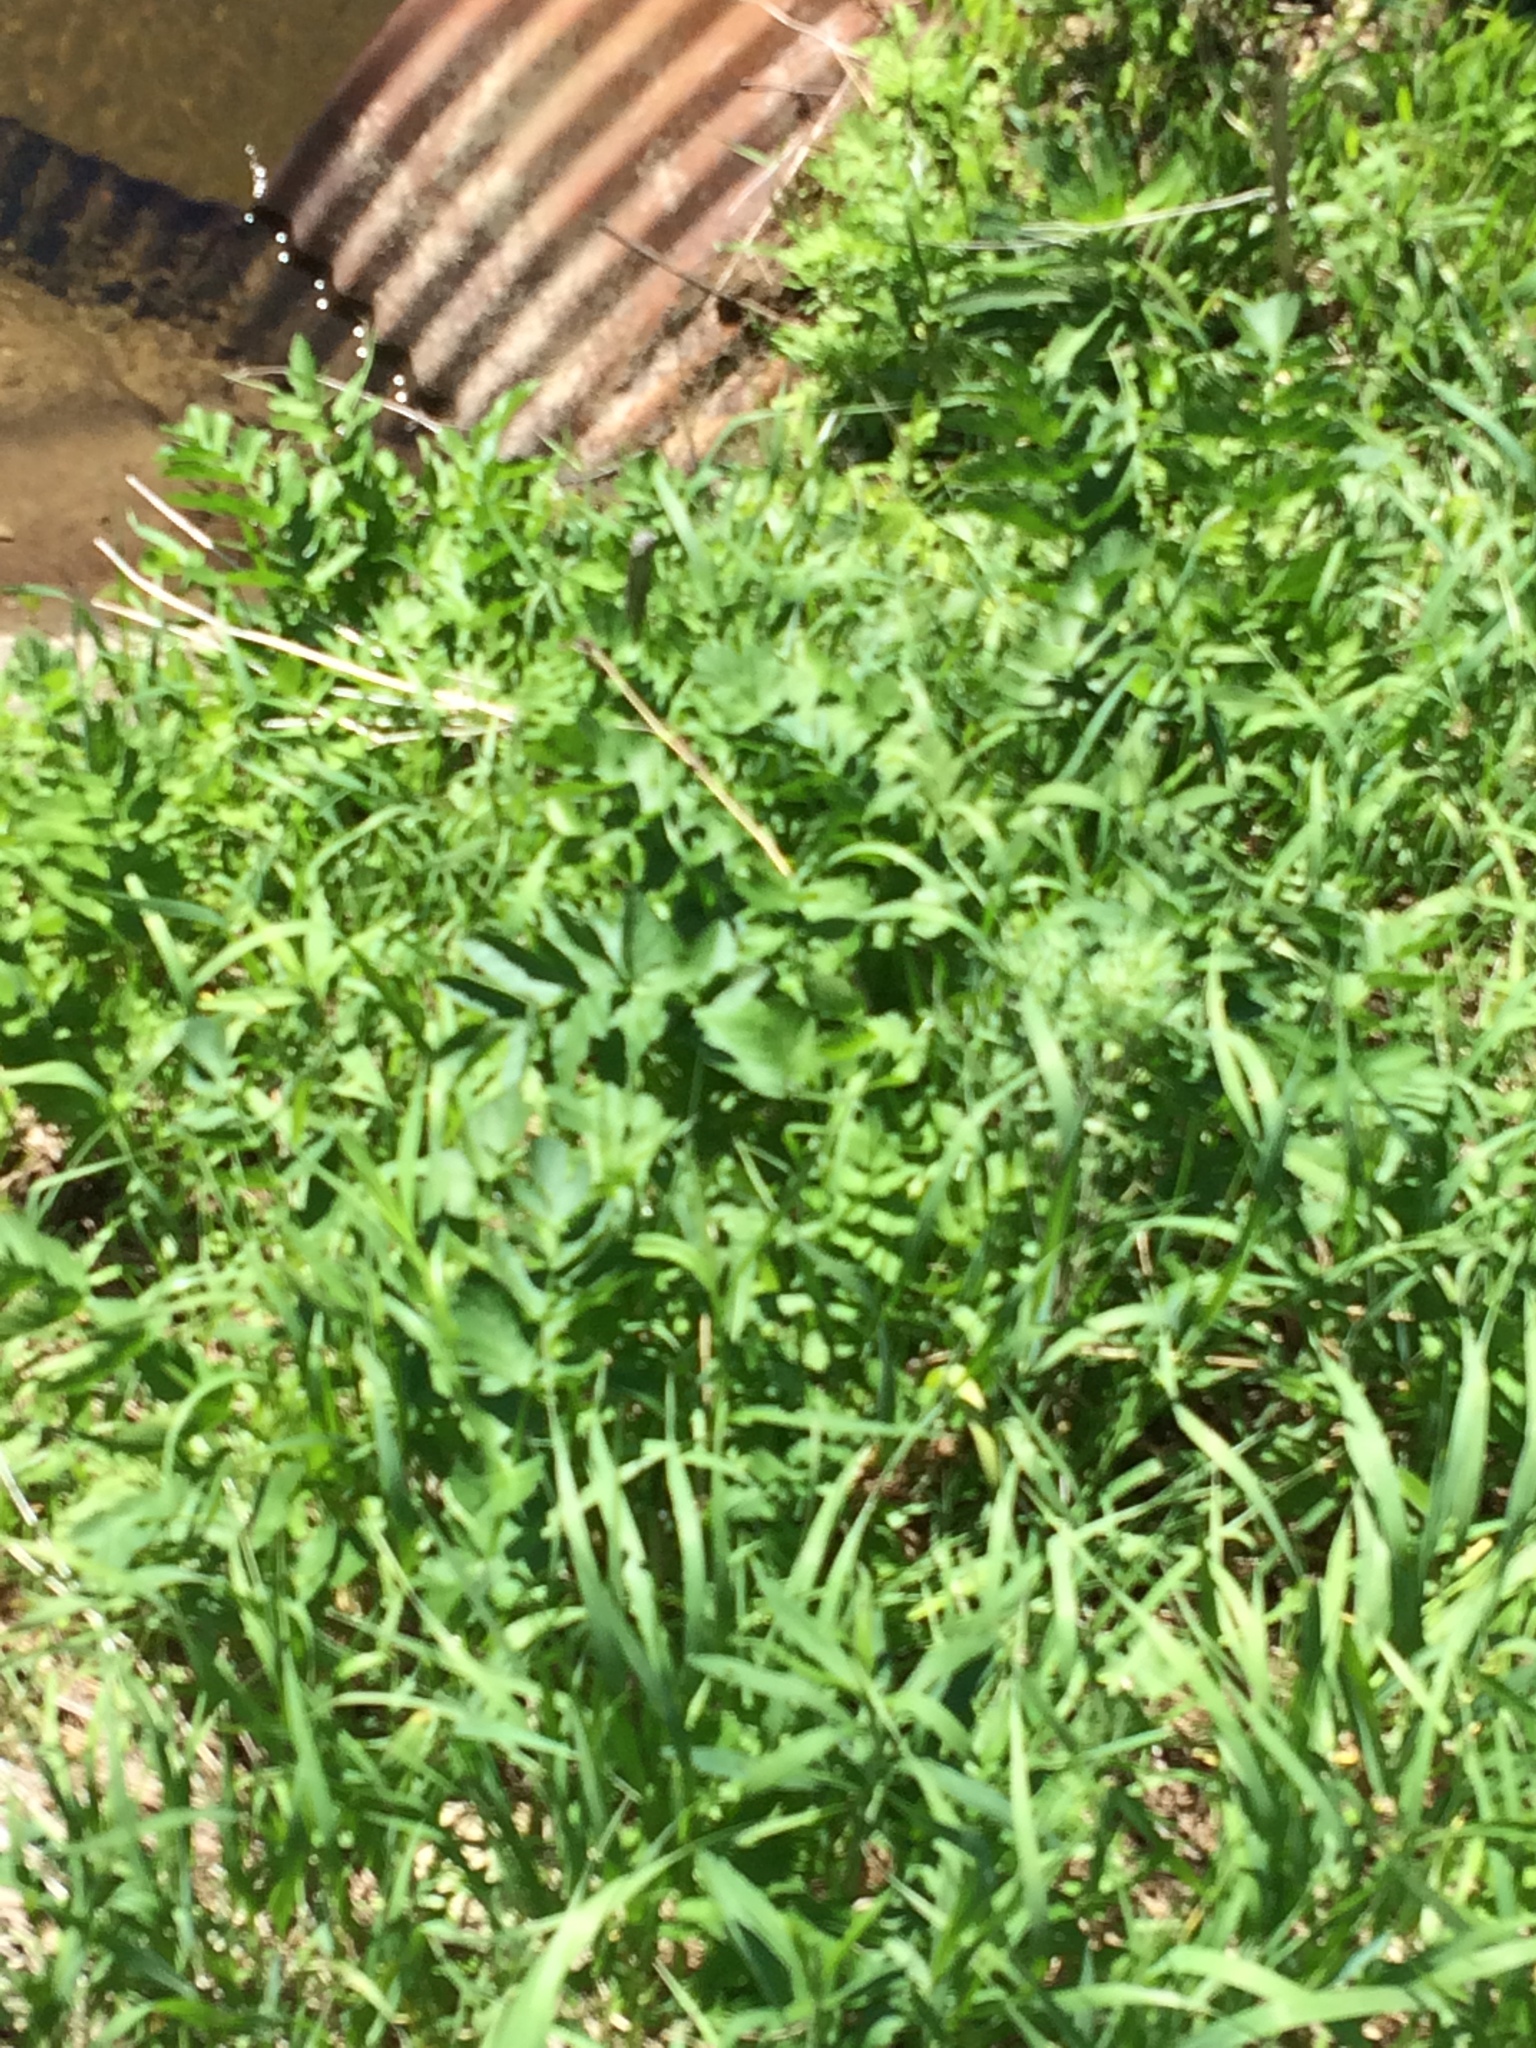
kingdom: Plantae
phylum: Tracheophyta
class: Magnoliopsida
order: Apiales
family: Apiaceae
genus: Pastinaca
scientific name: Pastinaca sativa
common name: Wild parsnip
